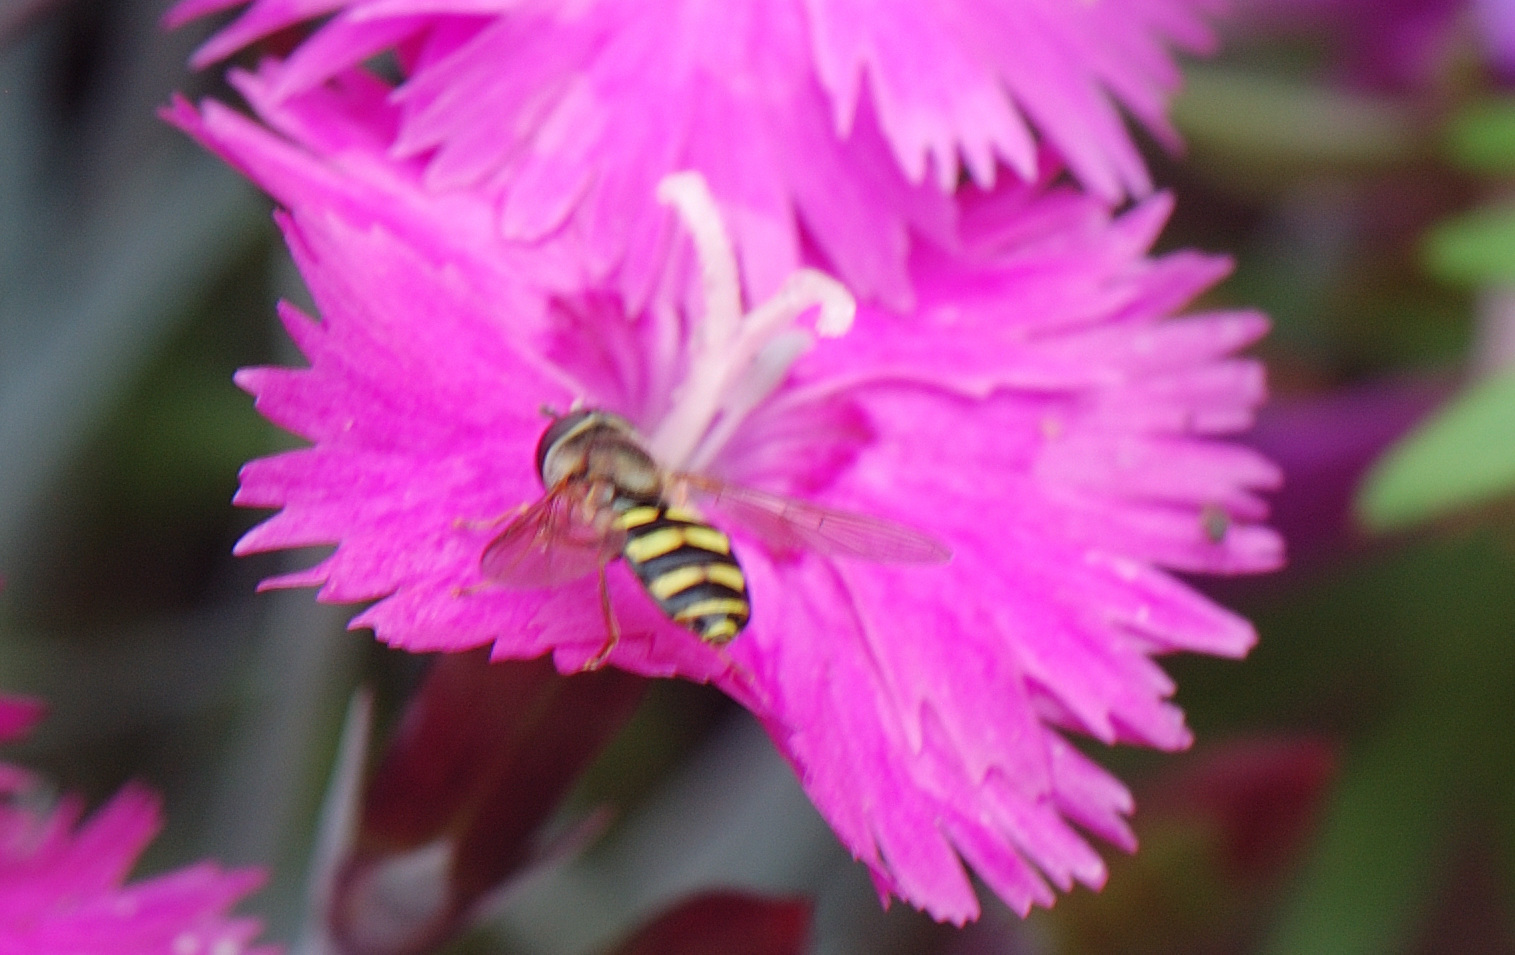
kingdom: Animalia
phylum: Arthropoda
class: Insecta
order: Diptera
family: Syrphidae
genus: Eupeodes
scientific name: Eupeodes
